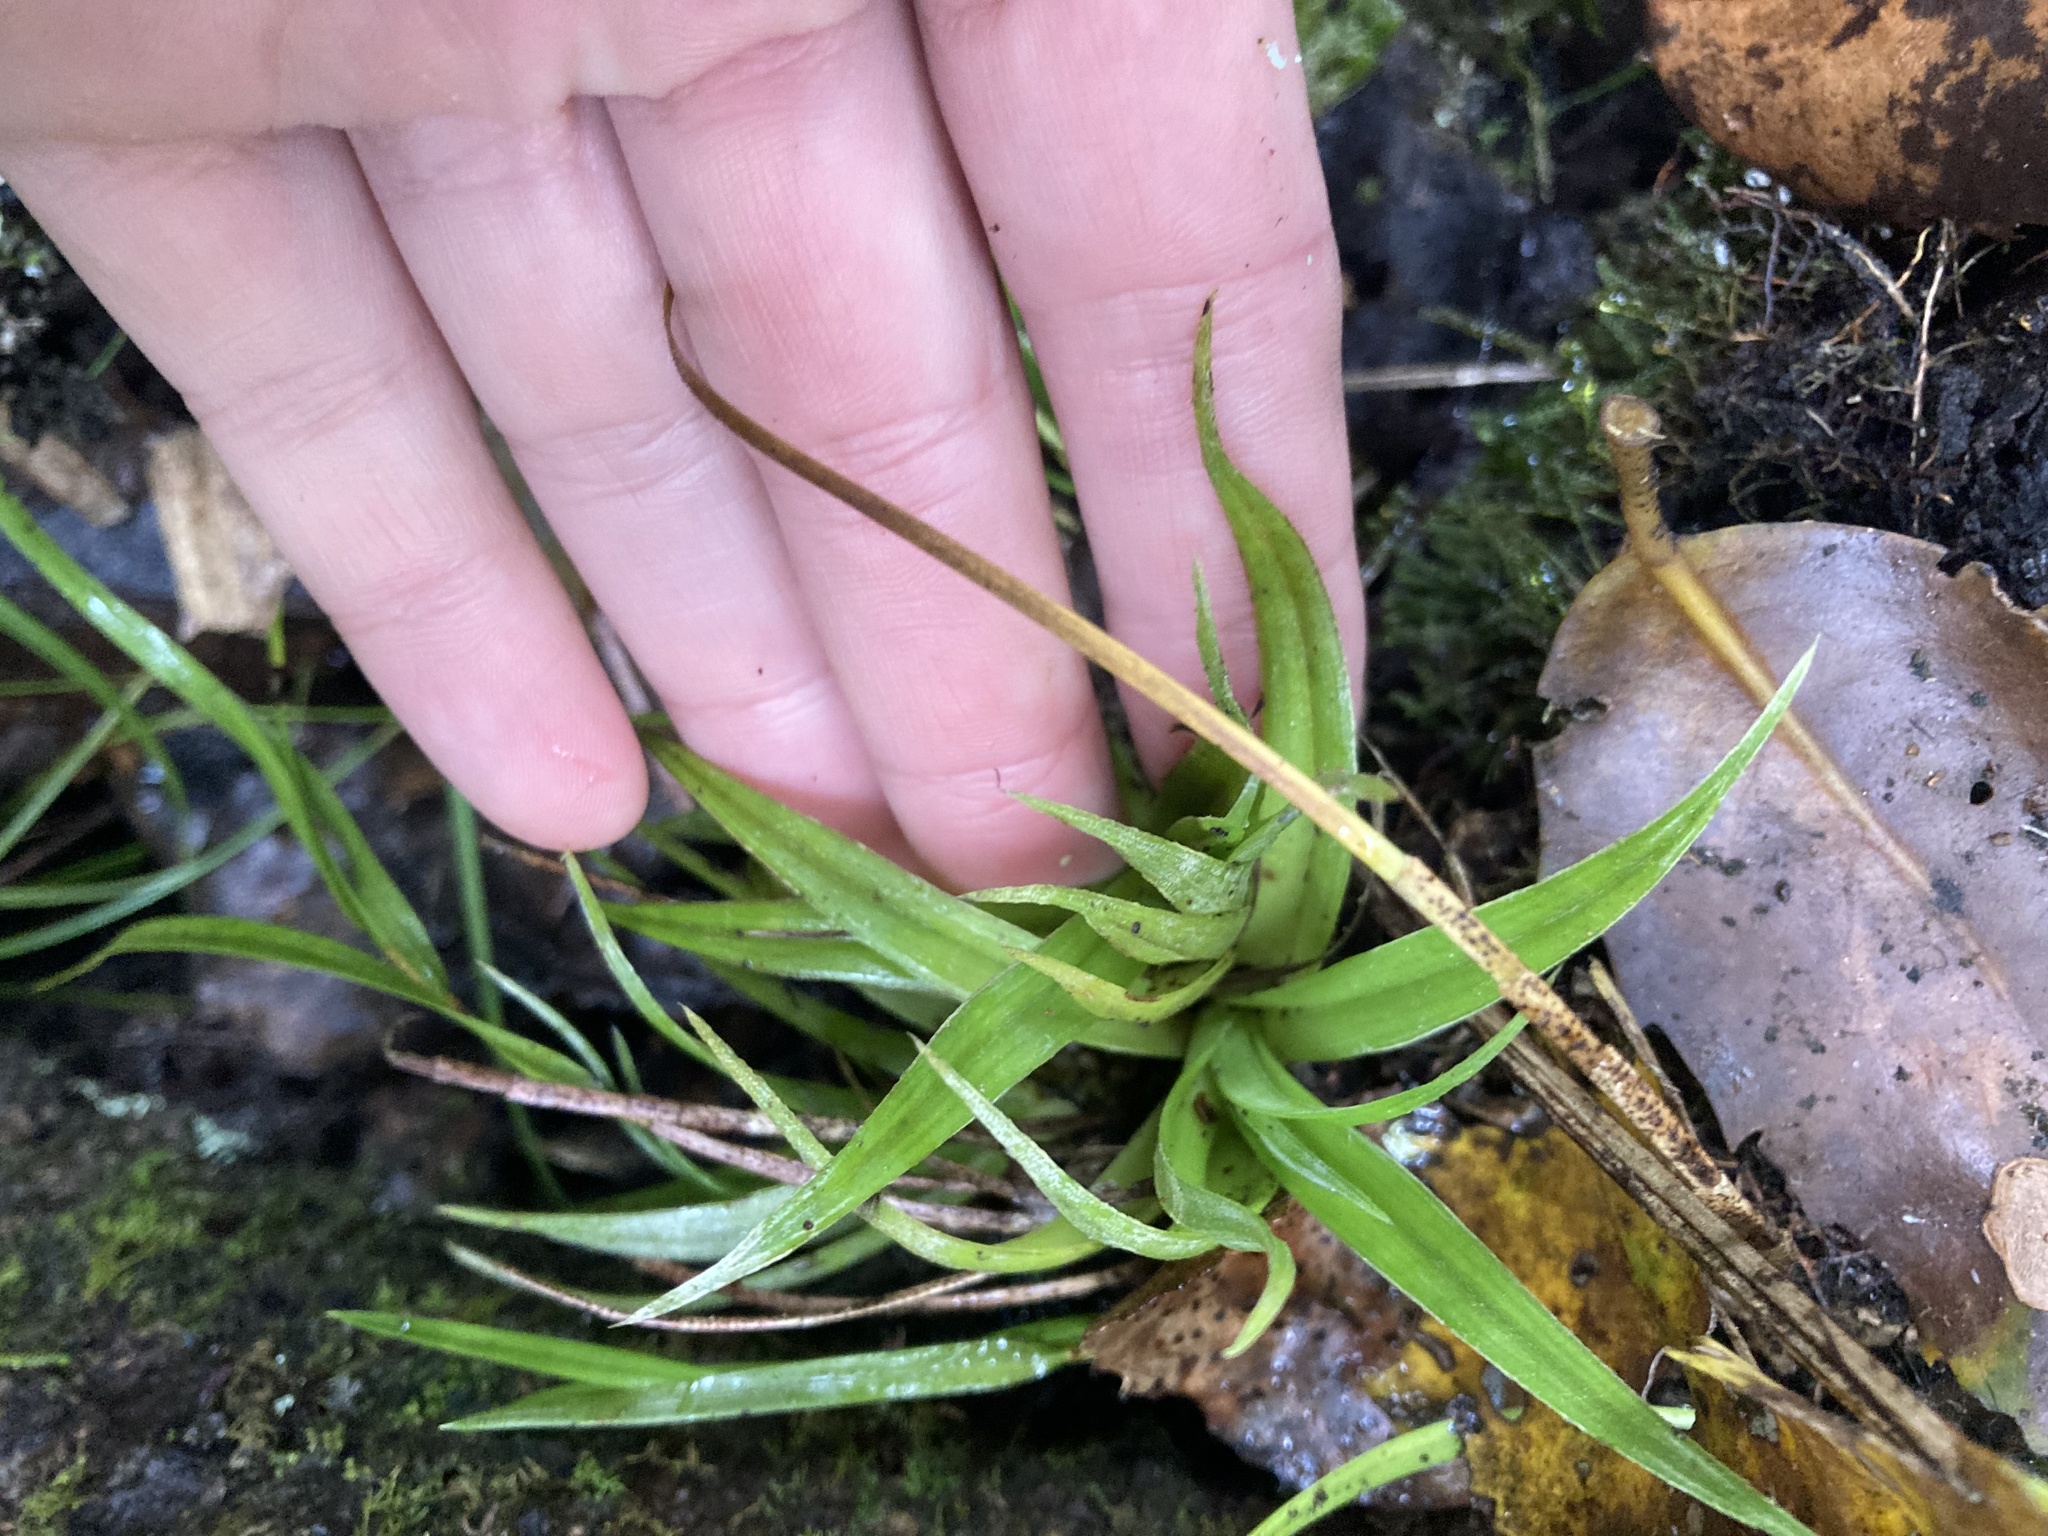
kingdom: Plantae
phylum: Tracheophyta
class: Liliopsida
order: Asparagales
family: Asteliaceae
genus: Astelia
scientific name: Astelia hastata
